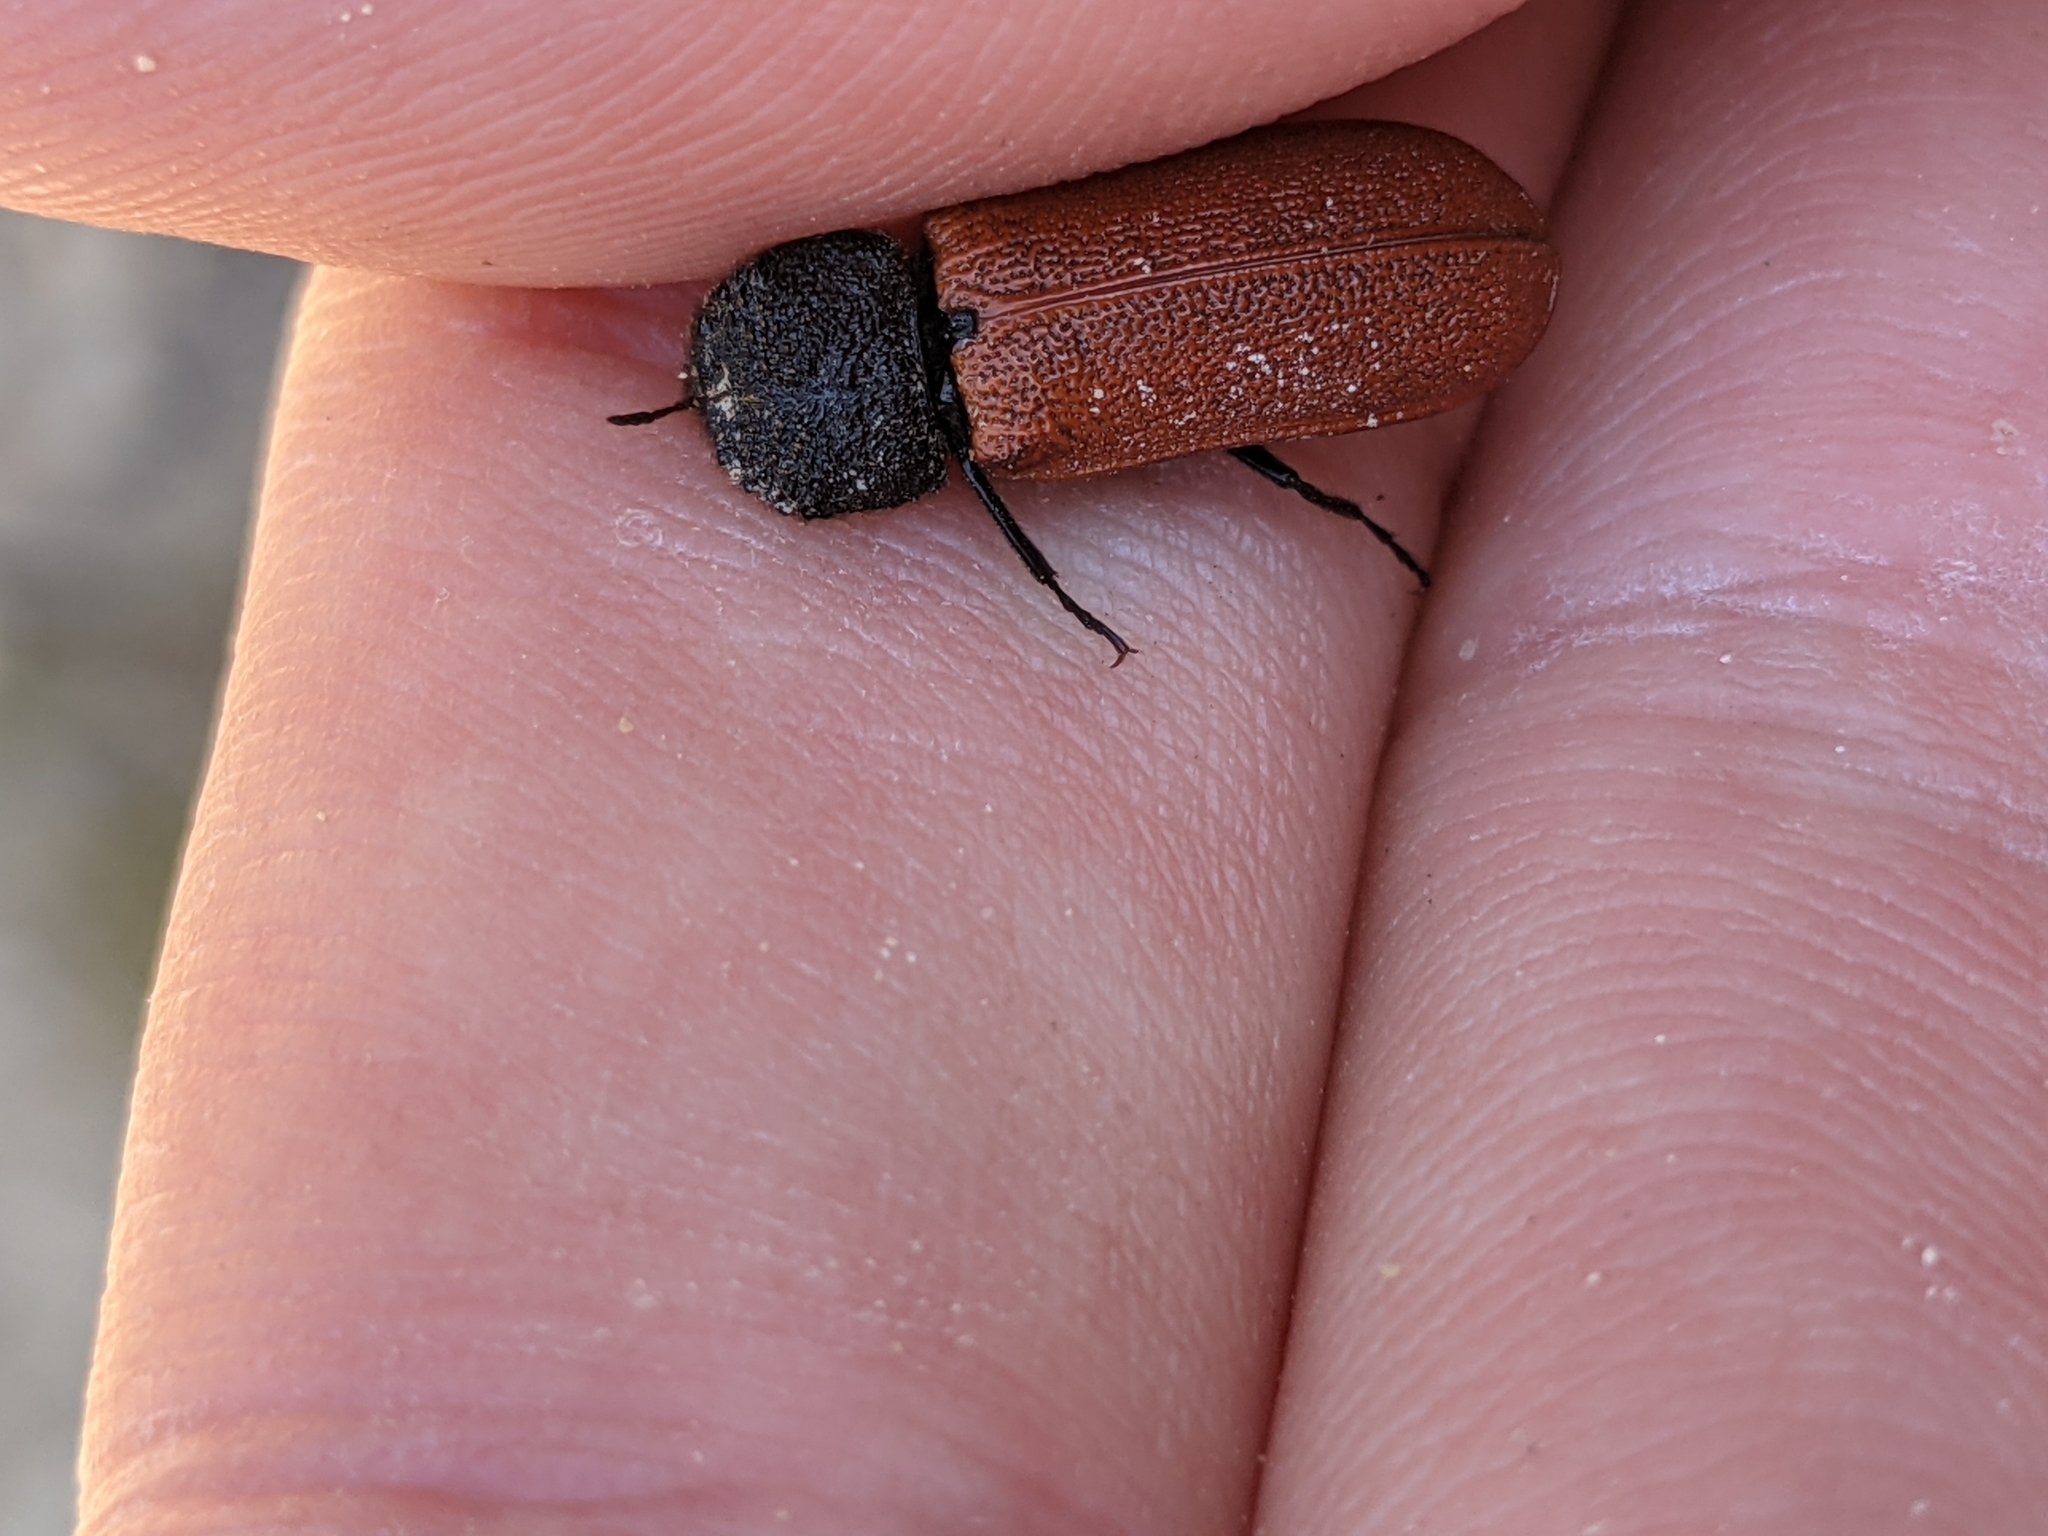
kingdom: Animalia
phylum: Arthropoda
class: Insecta
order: Coleoptera
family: Bostrichidae
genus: Bostrichus
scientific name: Bostrichus capucinus
